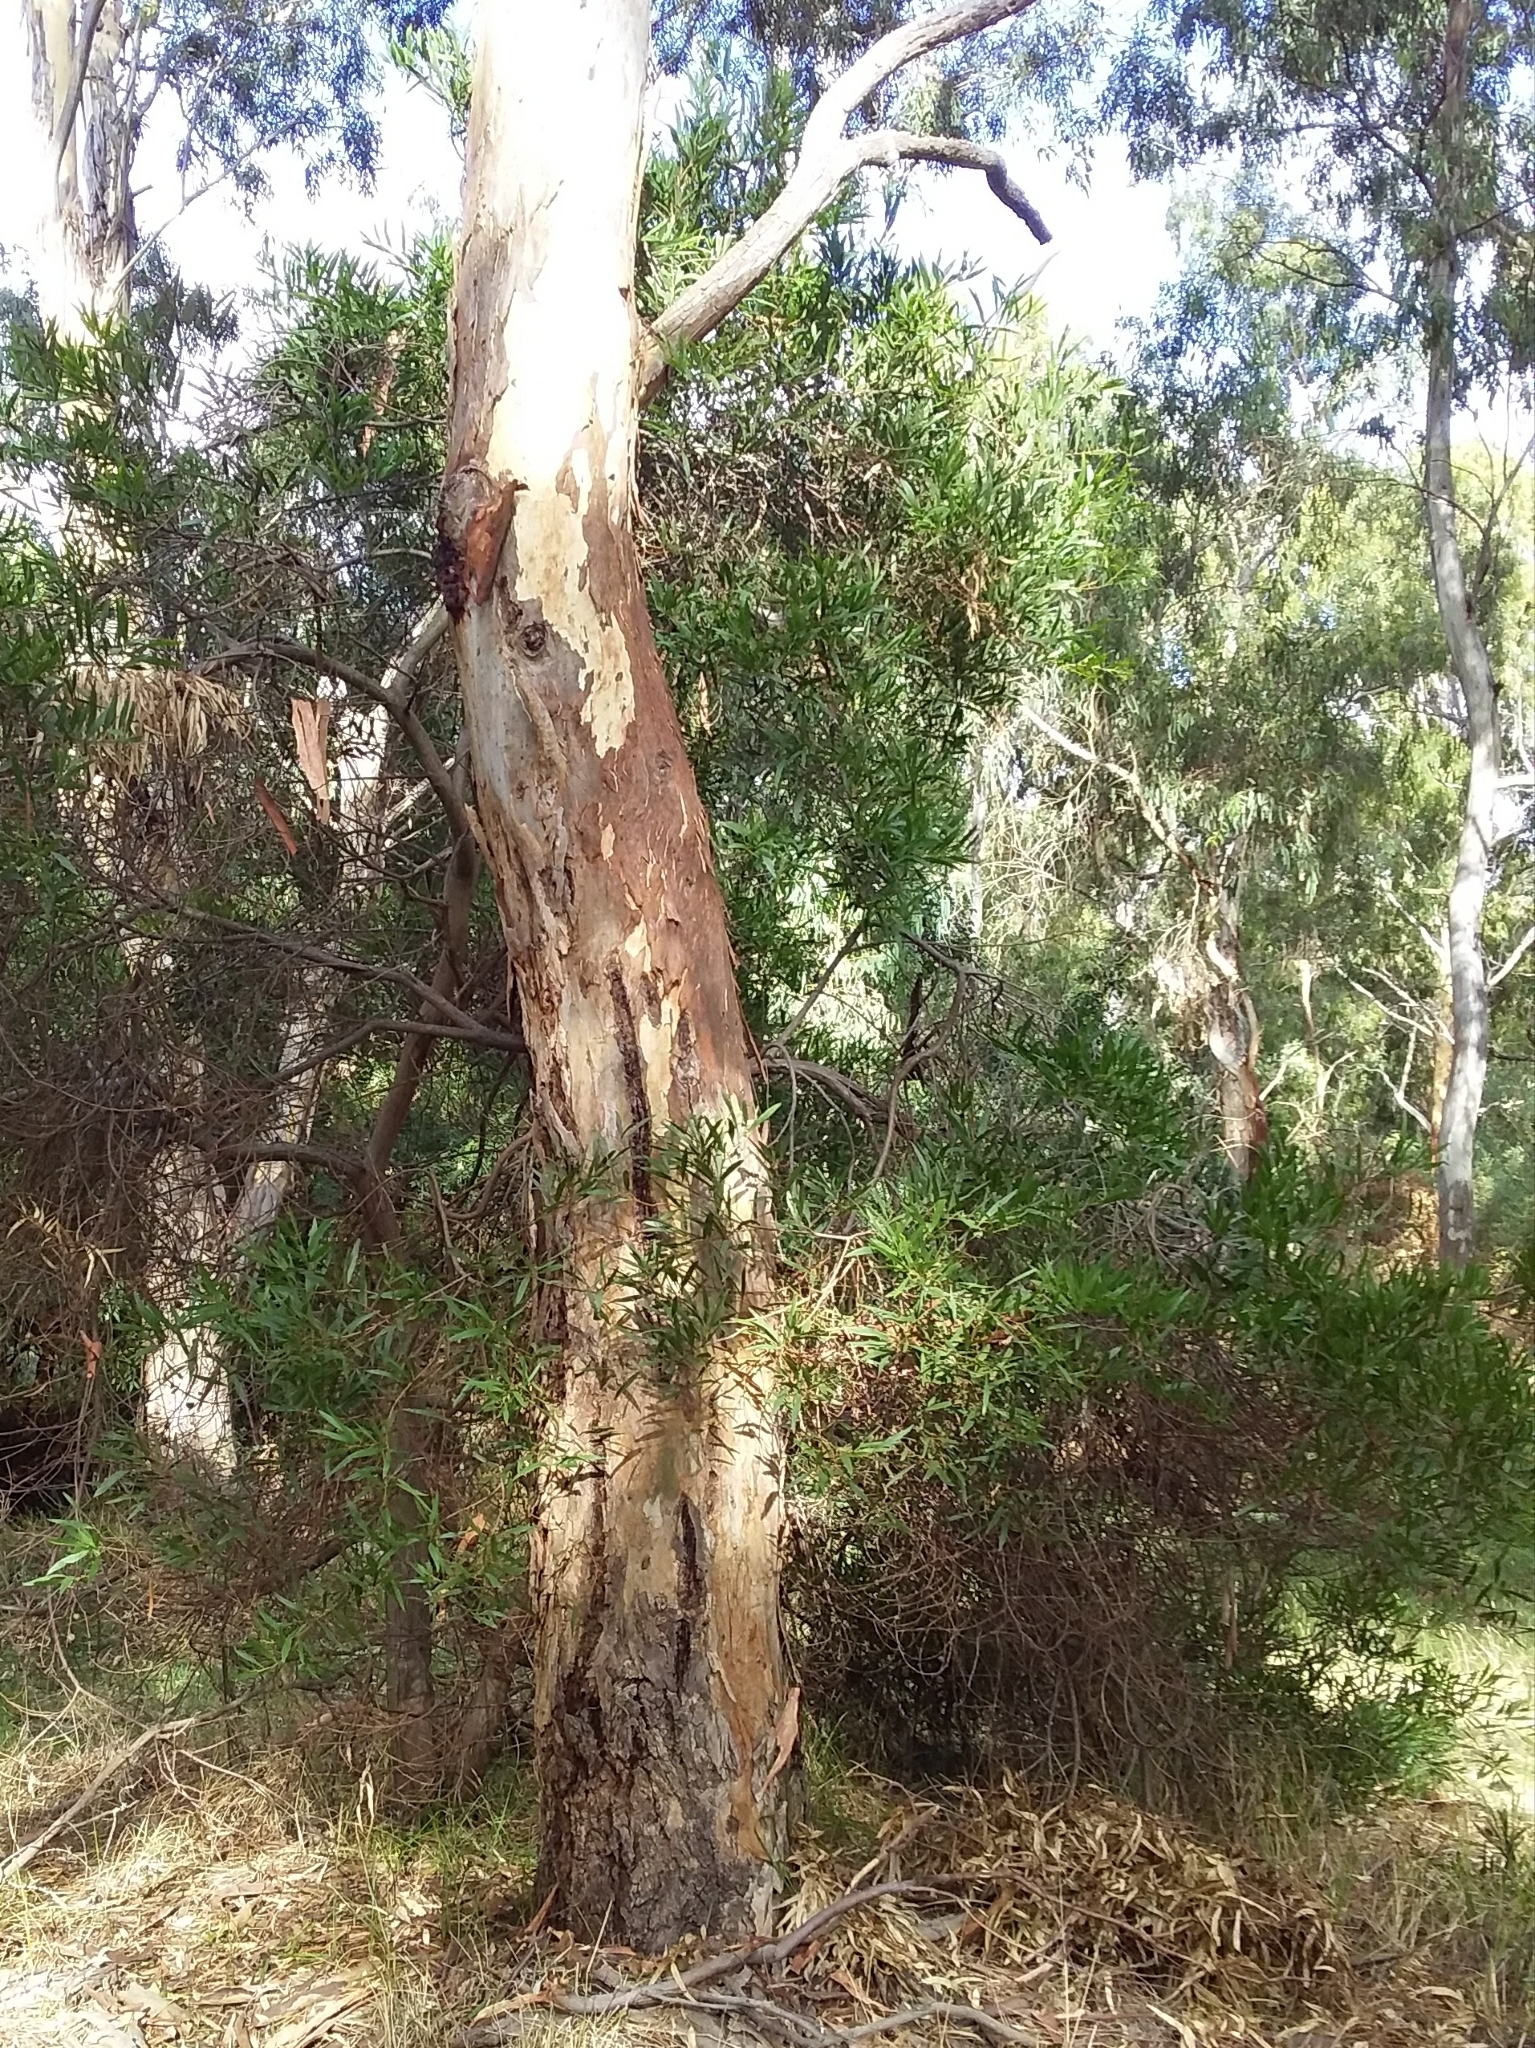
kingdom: Plantae
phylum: Tracheophyta
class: Magnoliopsida
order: Fabales
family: Fabaceae
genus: Acacia
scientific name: Acacia longifolia
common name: Sydney golden wattle
